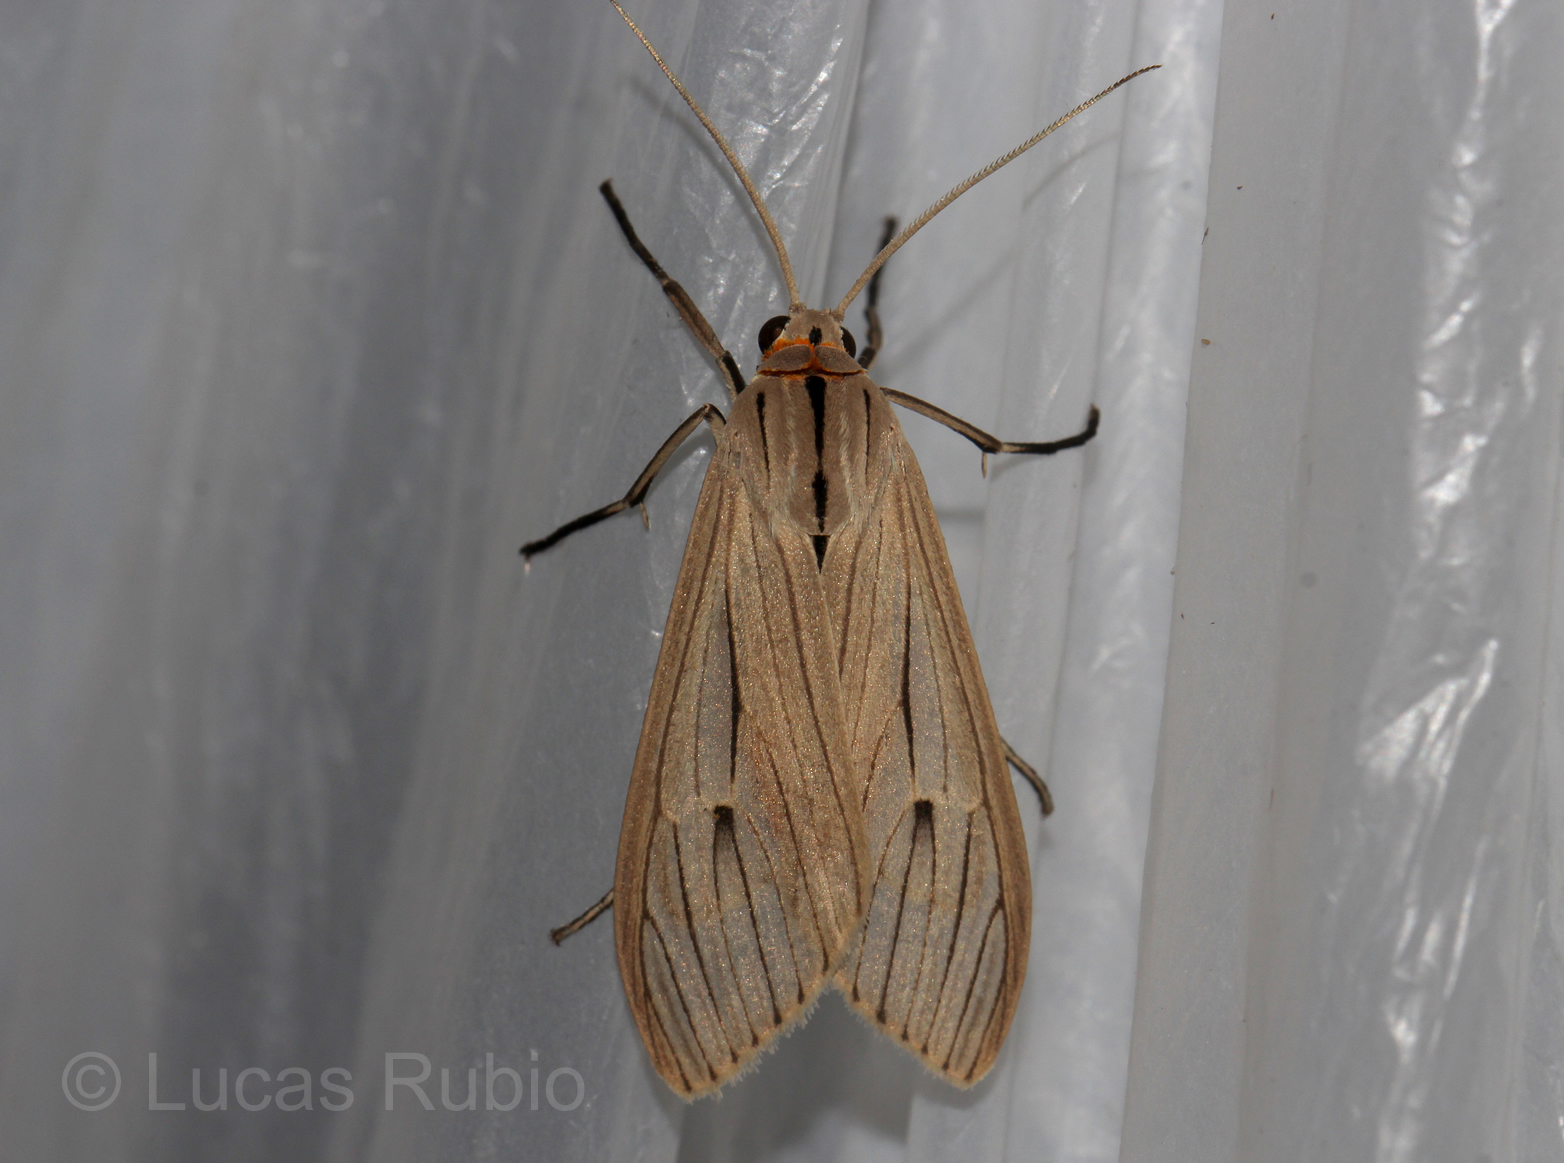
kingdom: Animalia
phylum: Arthropoda
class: Insecta
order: Lepidoptera
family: Erebidae
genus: Arctagyrta
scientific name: Arctagyrta Agaraea nigrostriata
